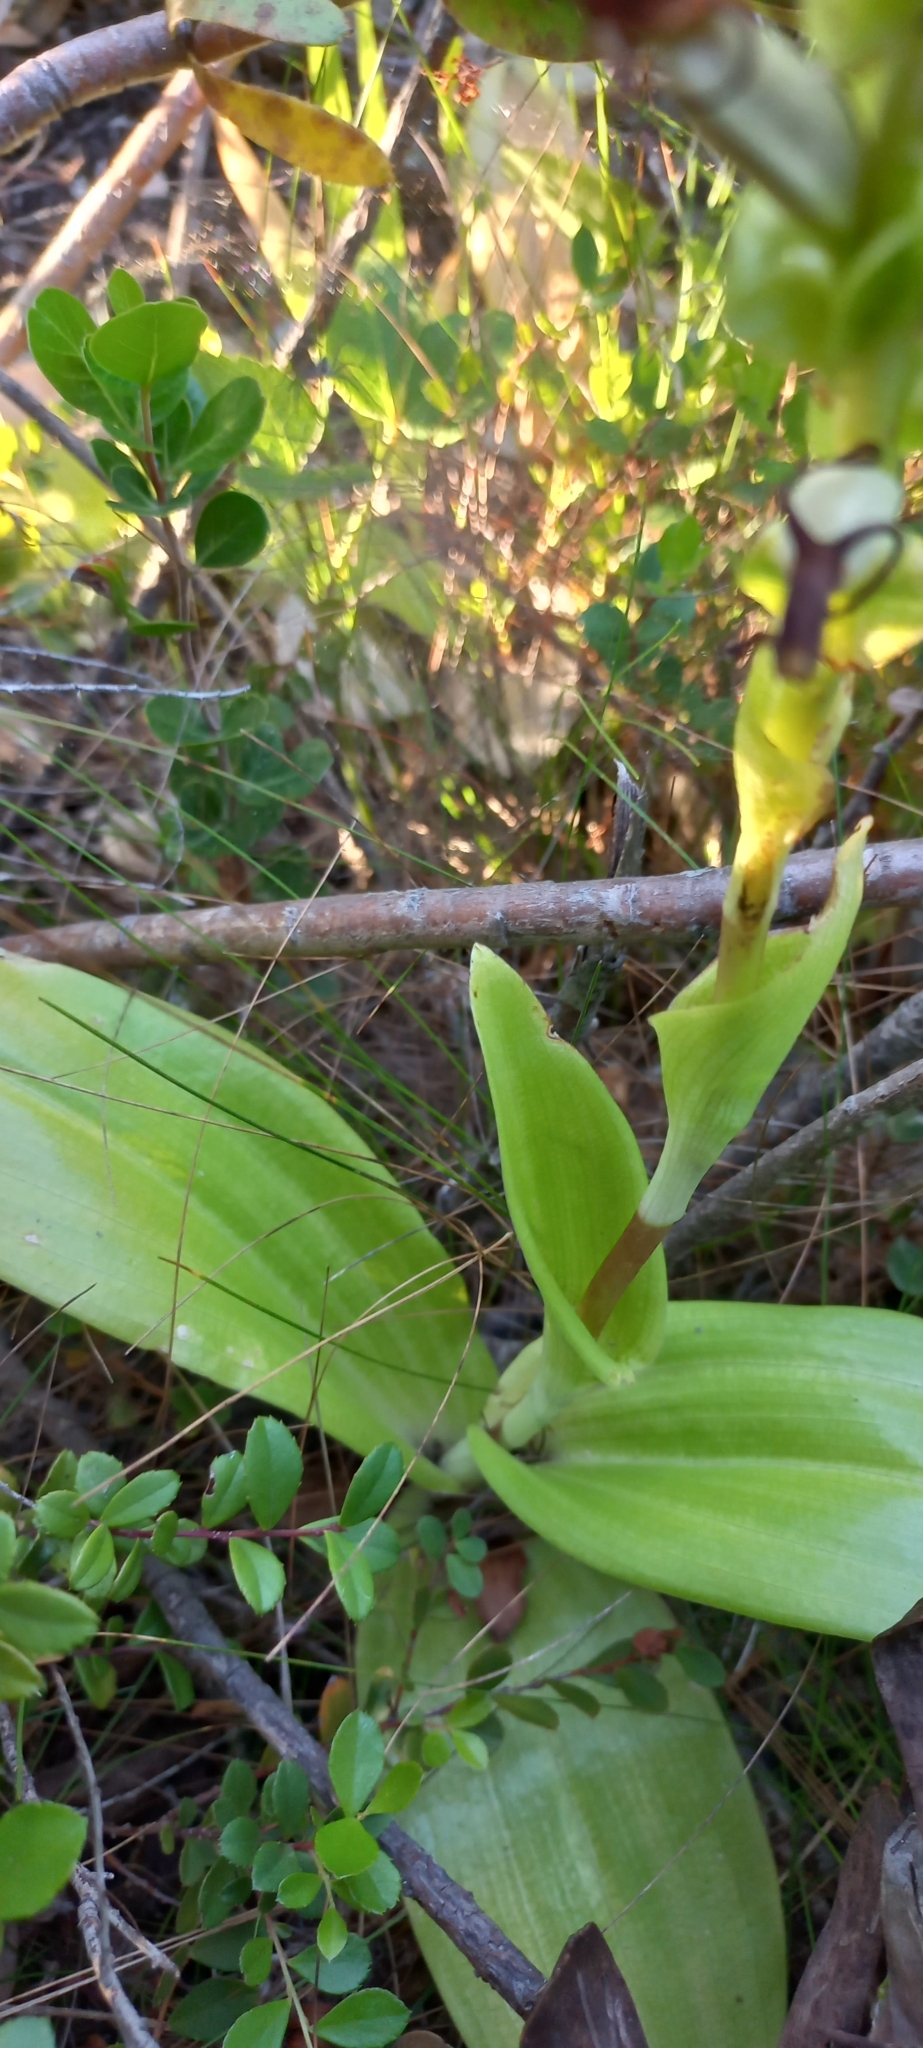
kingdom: Plantae
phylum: Tracheophyta
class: Liliopsida
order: Asparagales
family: Orchidaceae
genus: Satyrium
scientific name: Satyrium odorum
